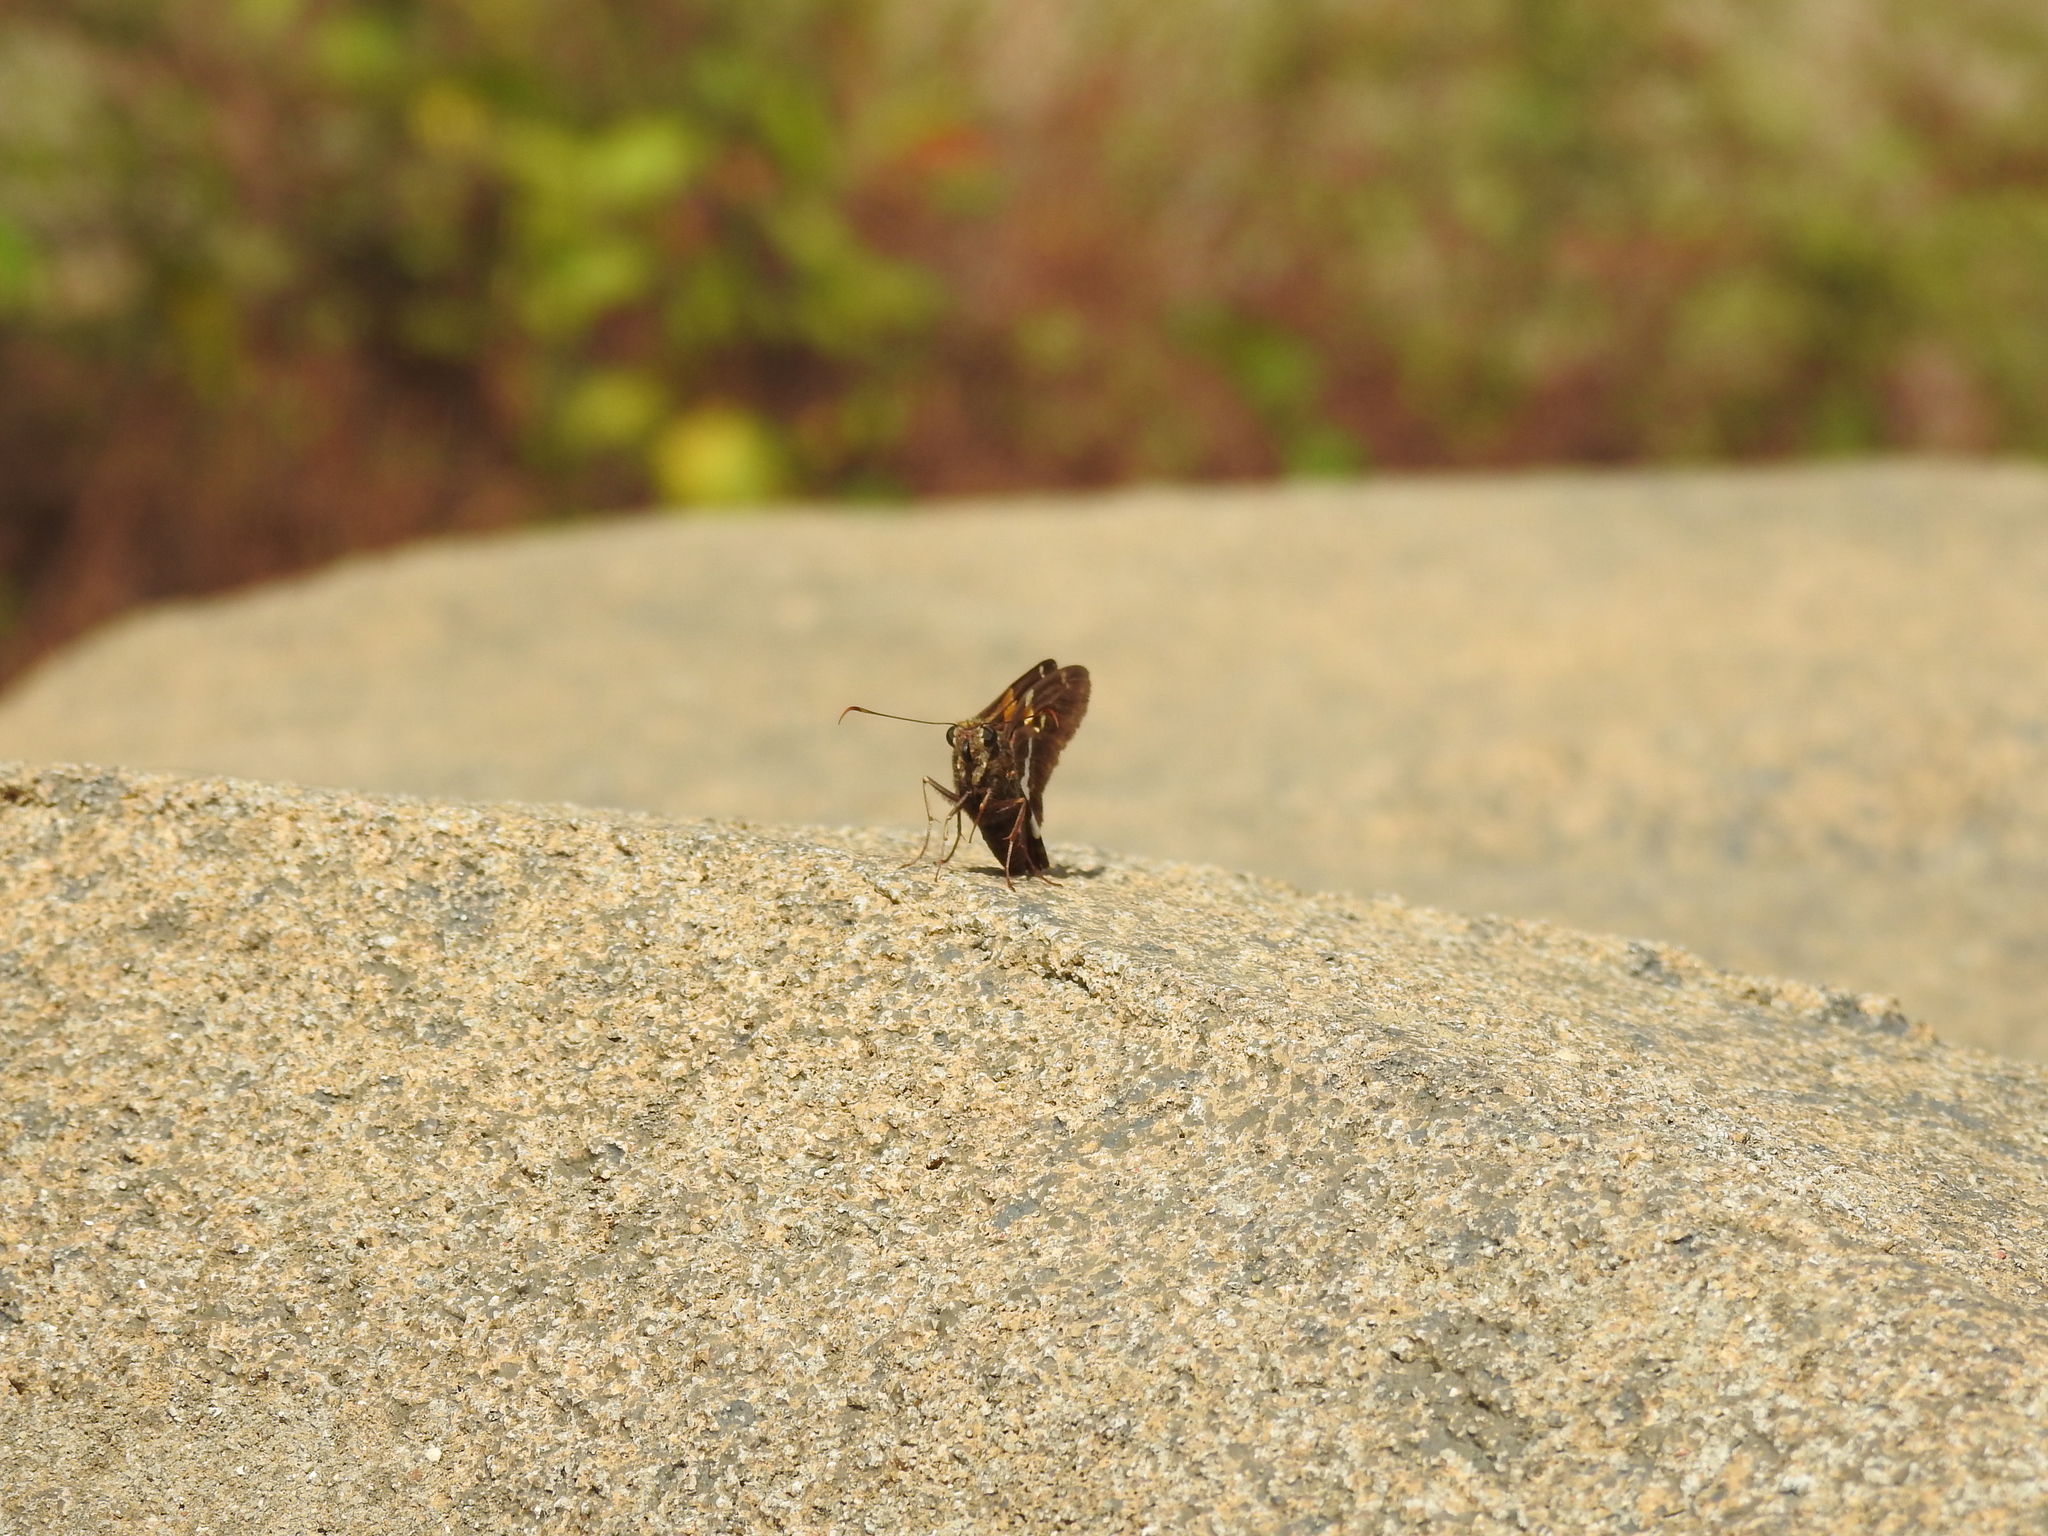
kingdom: Animalia
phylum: Arthropoda
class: Insecta
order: Lepidoptera
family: Hesperiidae
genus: Epargyreus
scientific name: Epargyreus clarus
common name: Silver-spotted skipper
